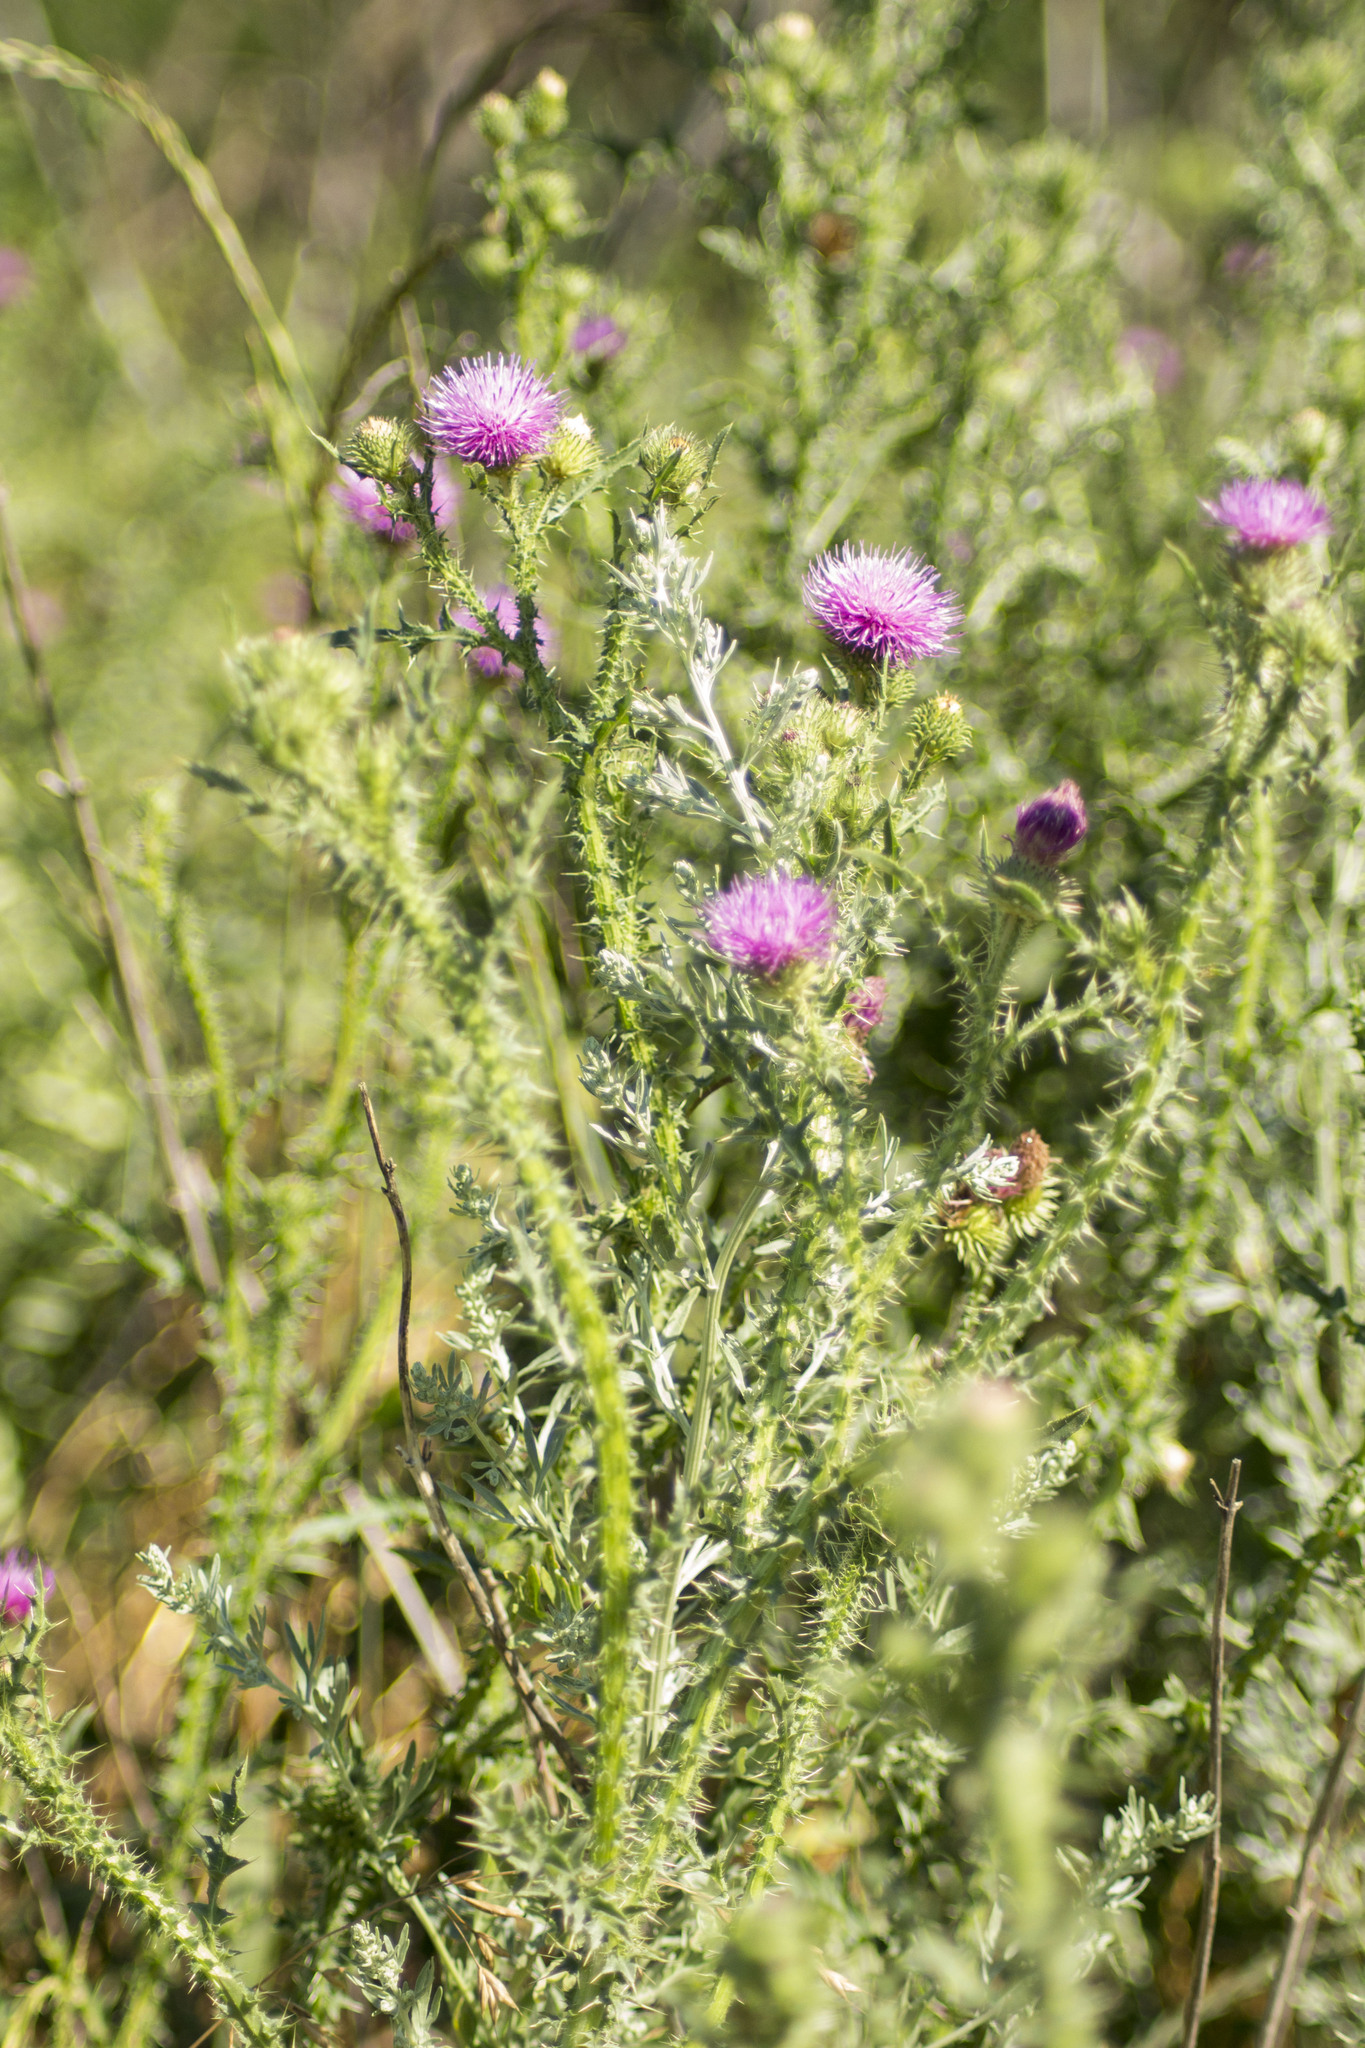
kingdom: Plantae
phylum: Tracheophyta
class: Magnoliopsida
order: Asterales
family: Asteraceae
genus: Carduus
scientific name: Carduus acanthoides
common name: Plumeless thistle
